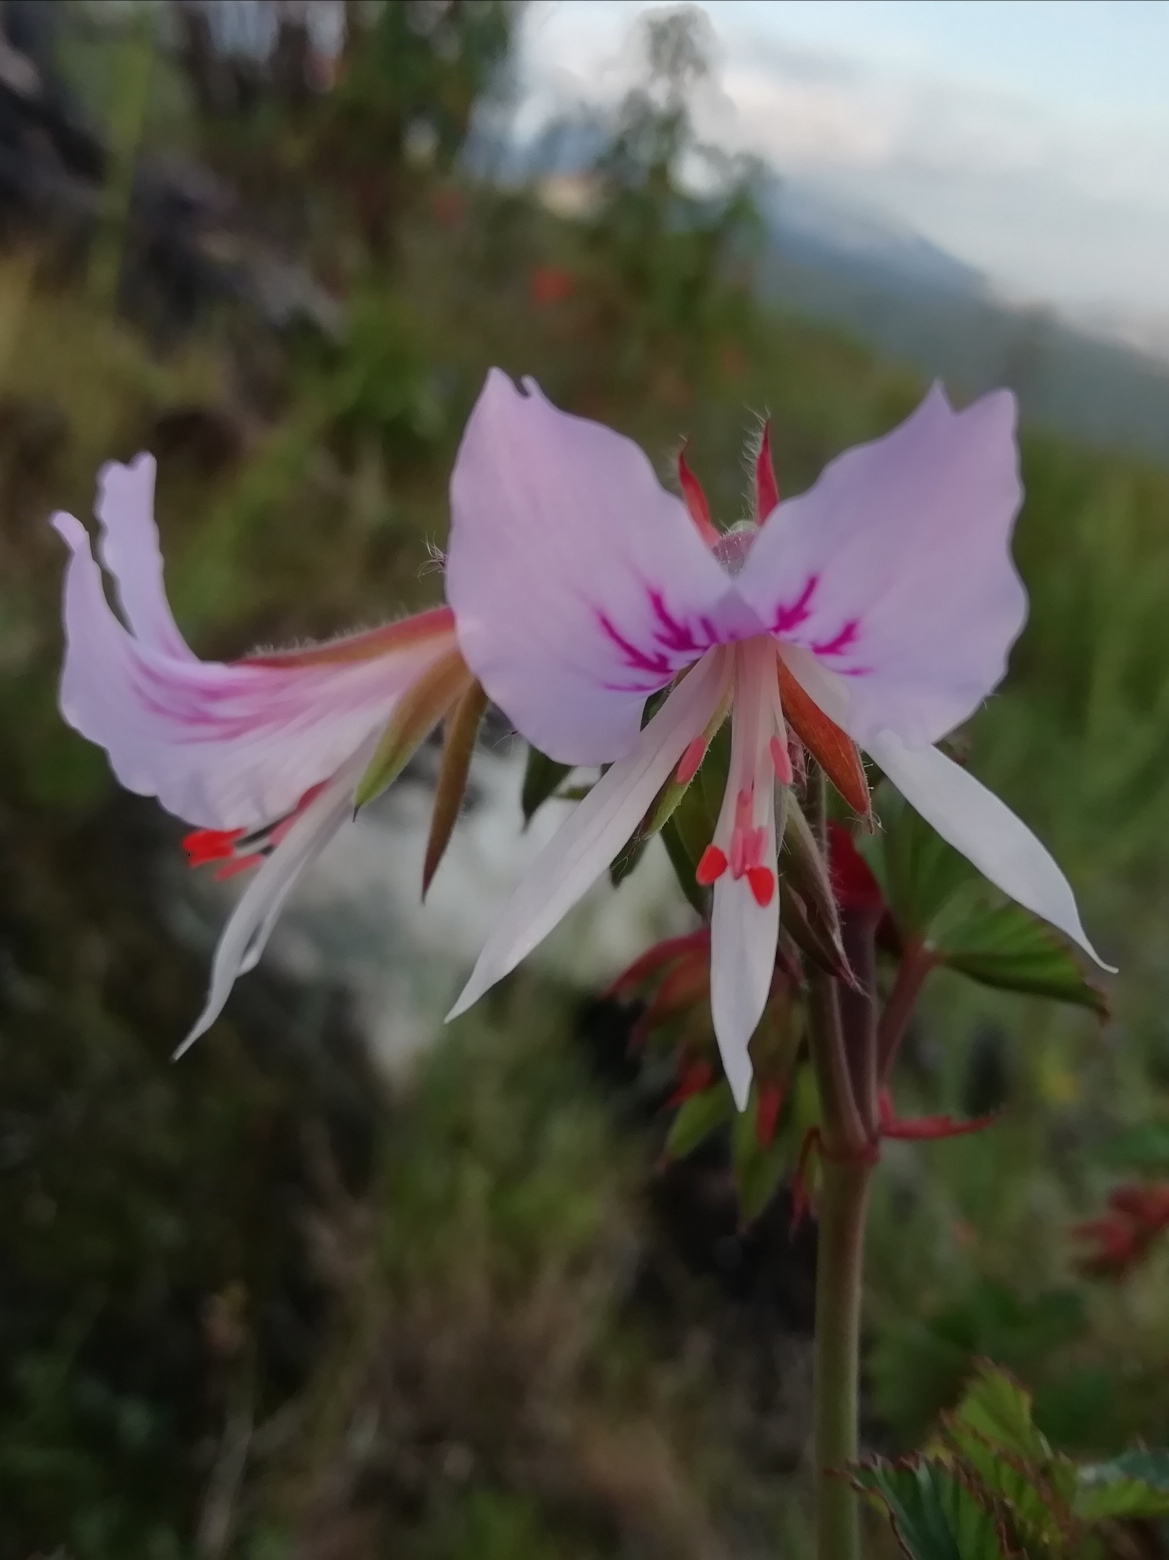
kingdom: Plantae
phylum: Tracheophyta
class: Magnoliopsida
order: Geraniales
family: Geraniaceae
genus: Pelargonium
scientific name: Pelargonium cordifolium
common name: Heart-leaf pelargonium
